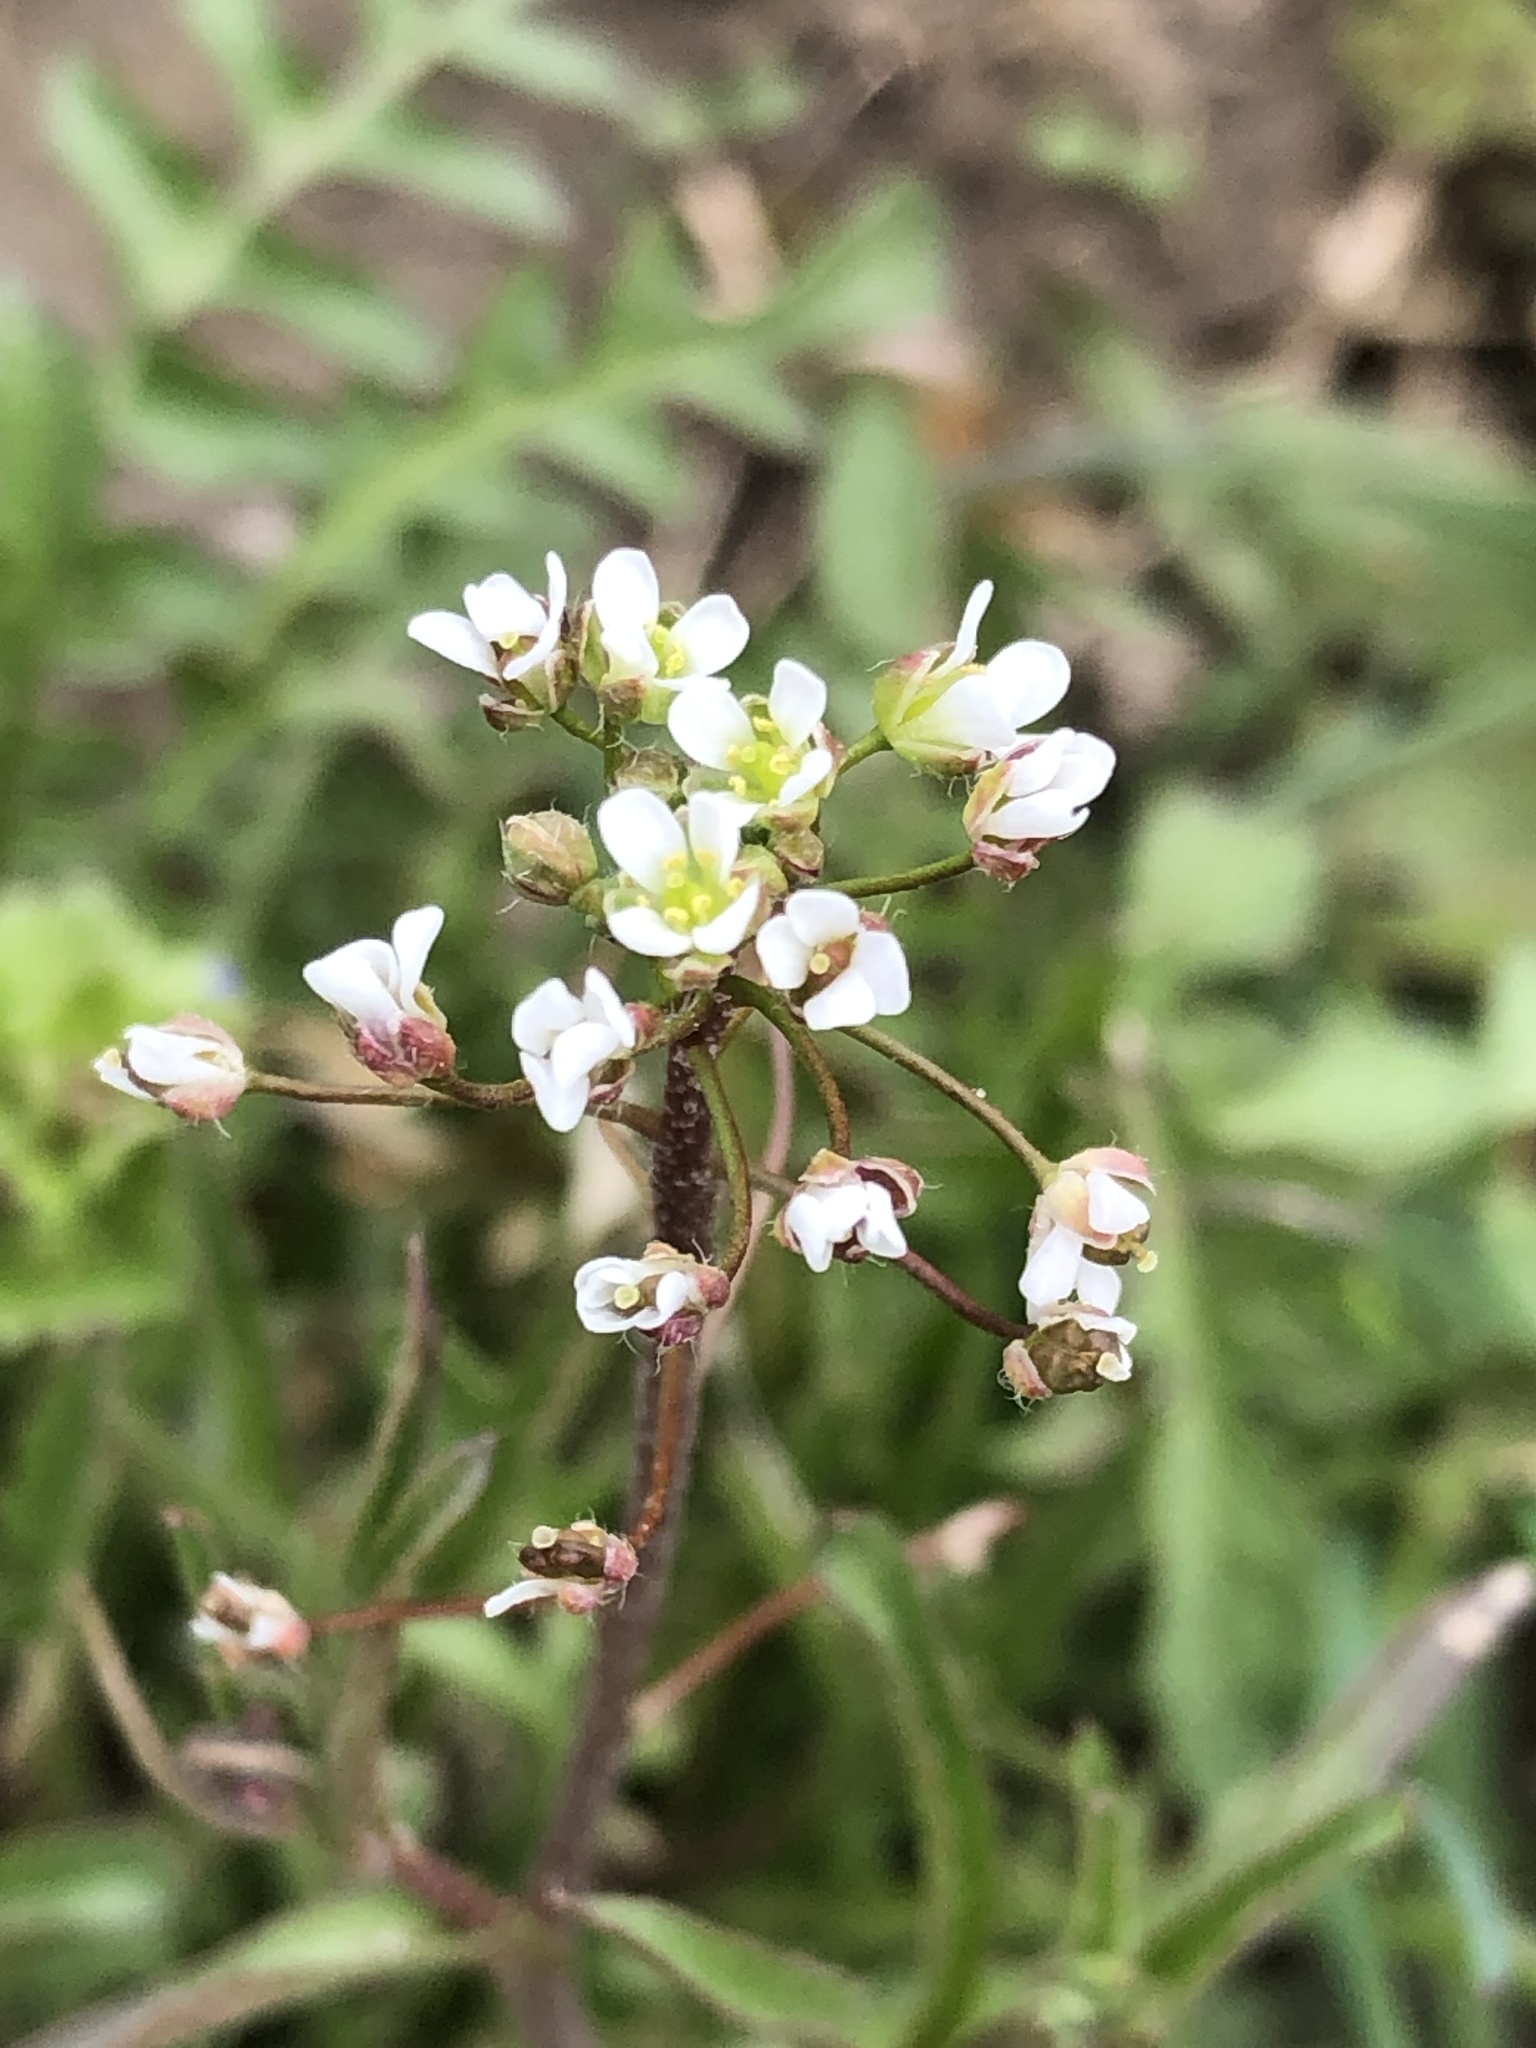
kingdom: Plantae
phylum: Tracheophyta
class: Magnoliopsida
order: Brassicales
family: Brassicaceae
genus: Capsella
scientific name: Capsella bursa-pastoris
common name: Shepherd's purse
